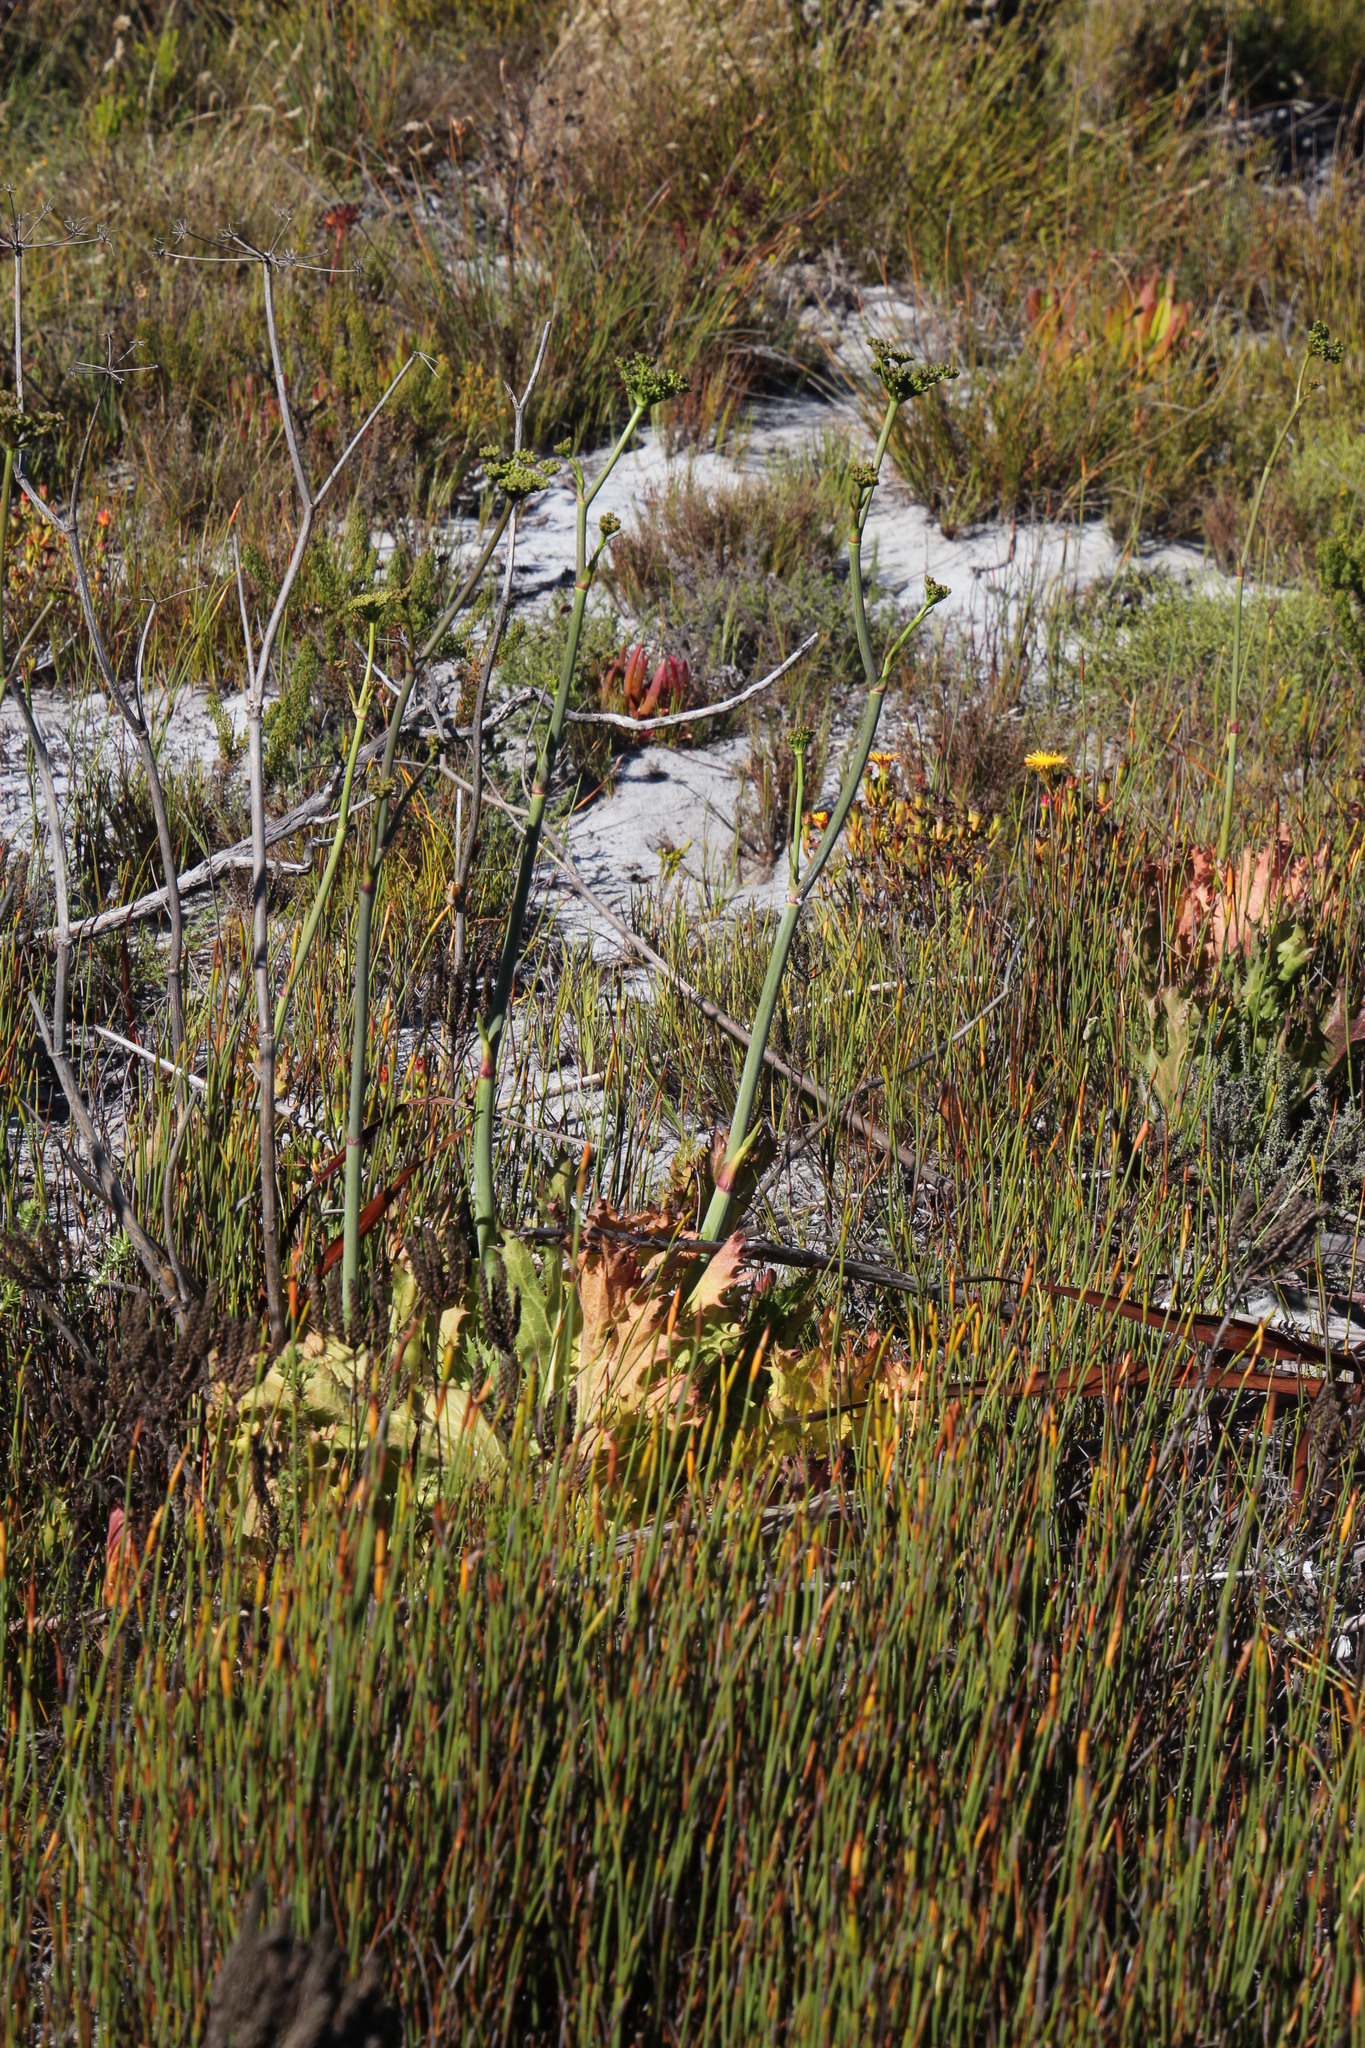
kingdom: Plantae
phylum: Tracheophyta
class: Magnoliopsida
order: Apiales
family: Apiaceae
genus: Lichtensteinia
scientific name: Lichtensteinia lacera
